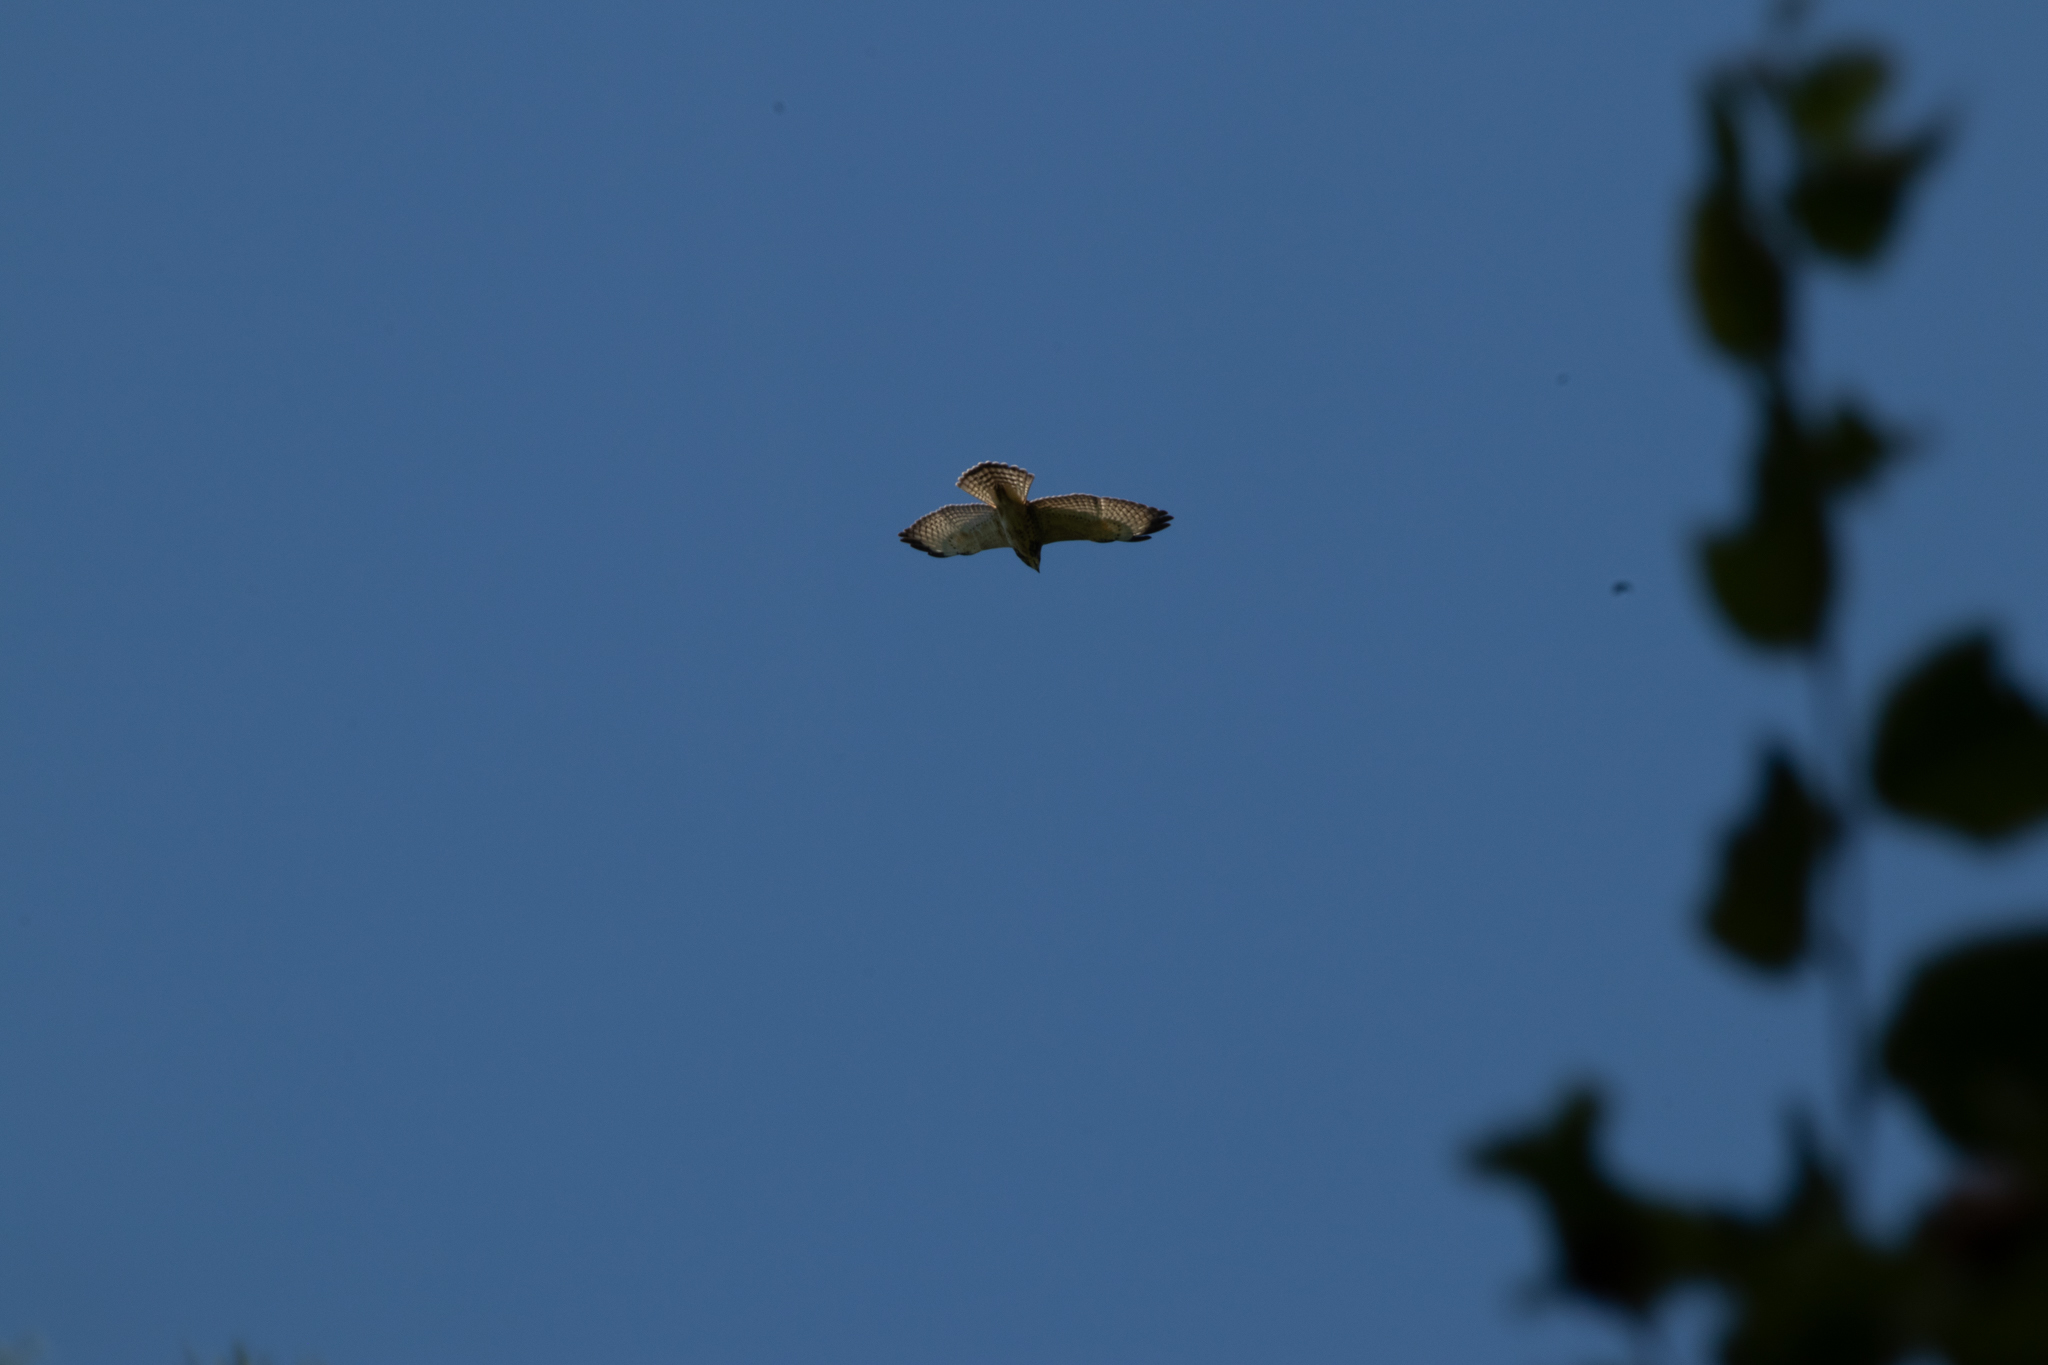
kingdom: Animalia
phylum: Chordata
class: Aves
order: Accipitriformes
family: Accipitridae
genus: Buteo
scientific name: Buteo platypterus
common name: Broad-winged hawk
